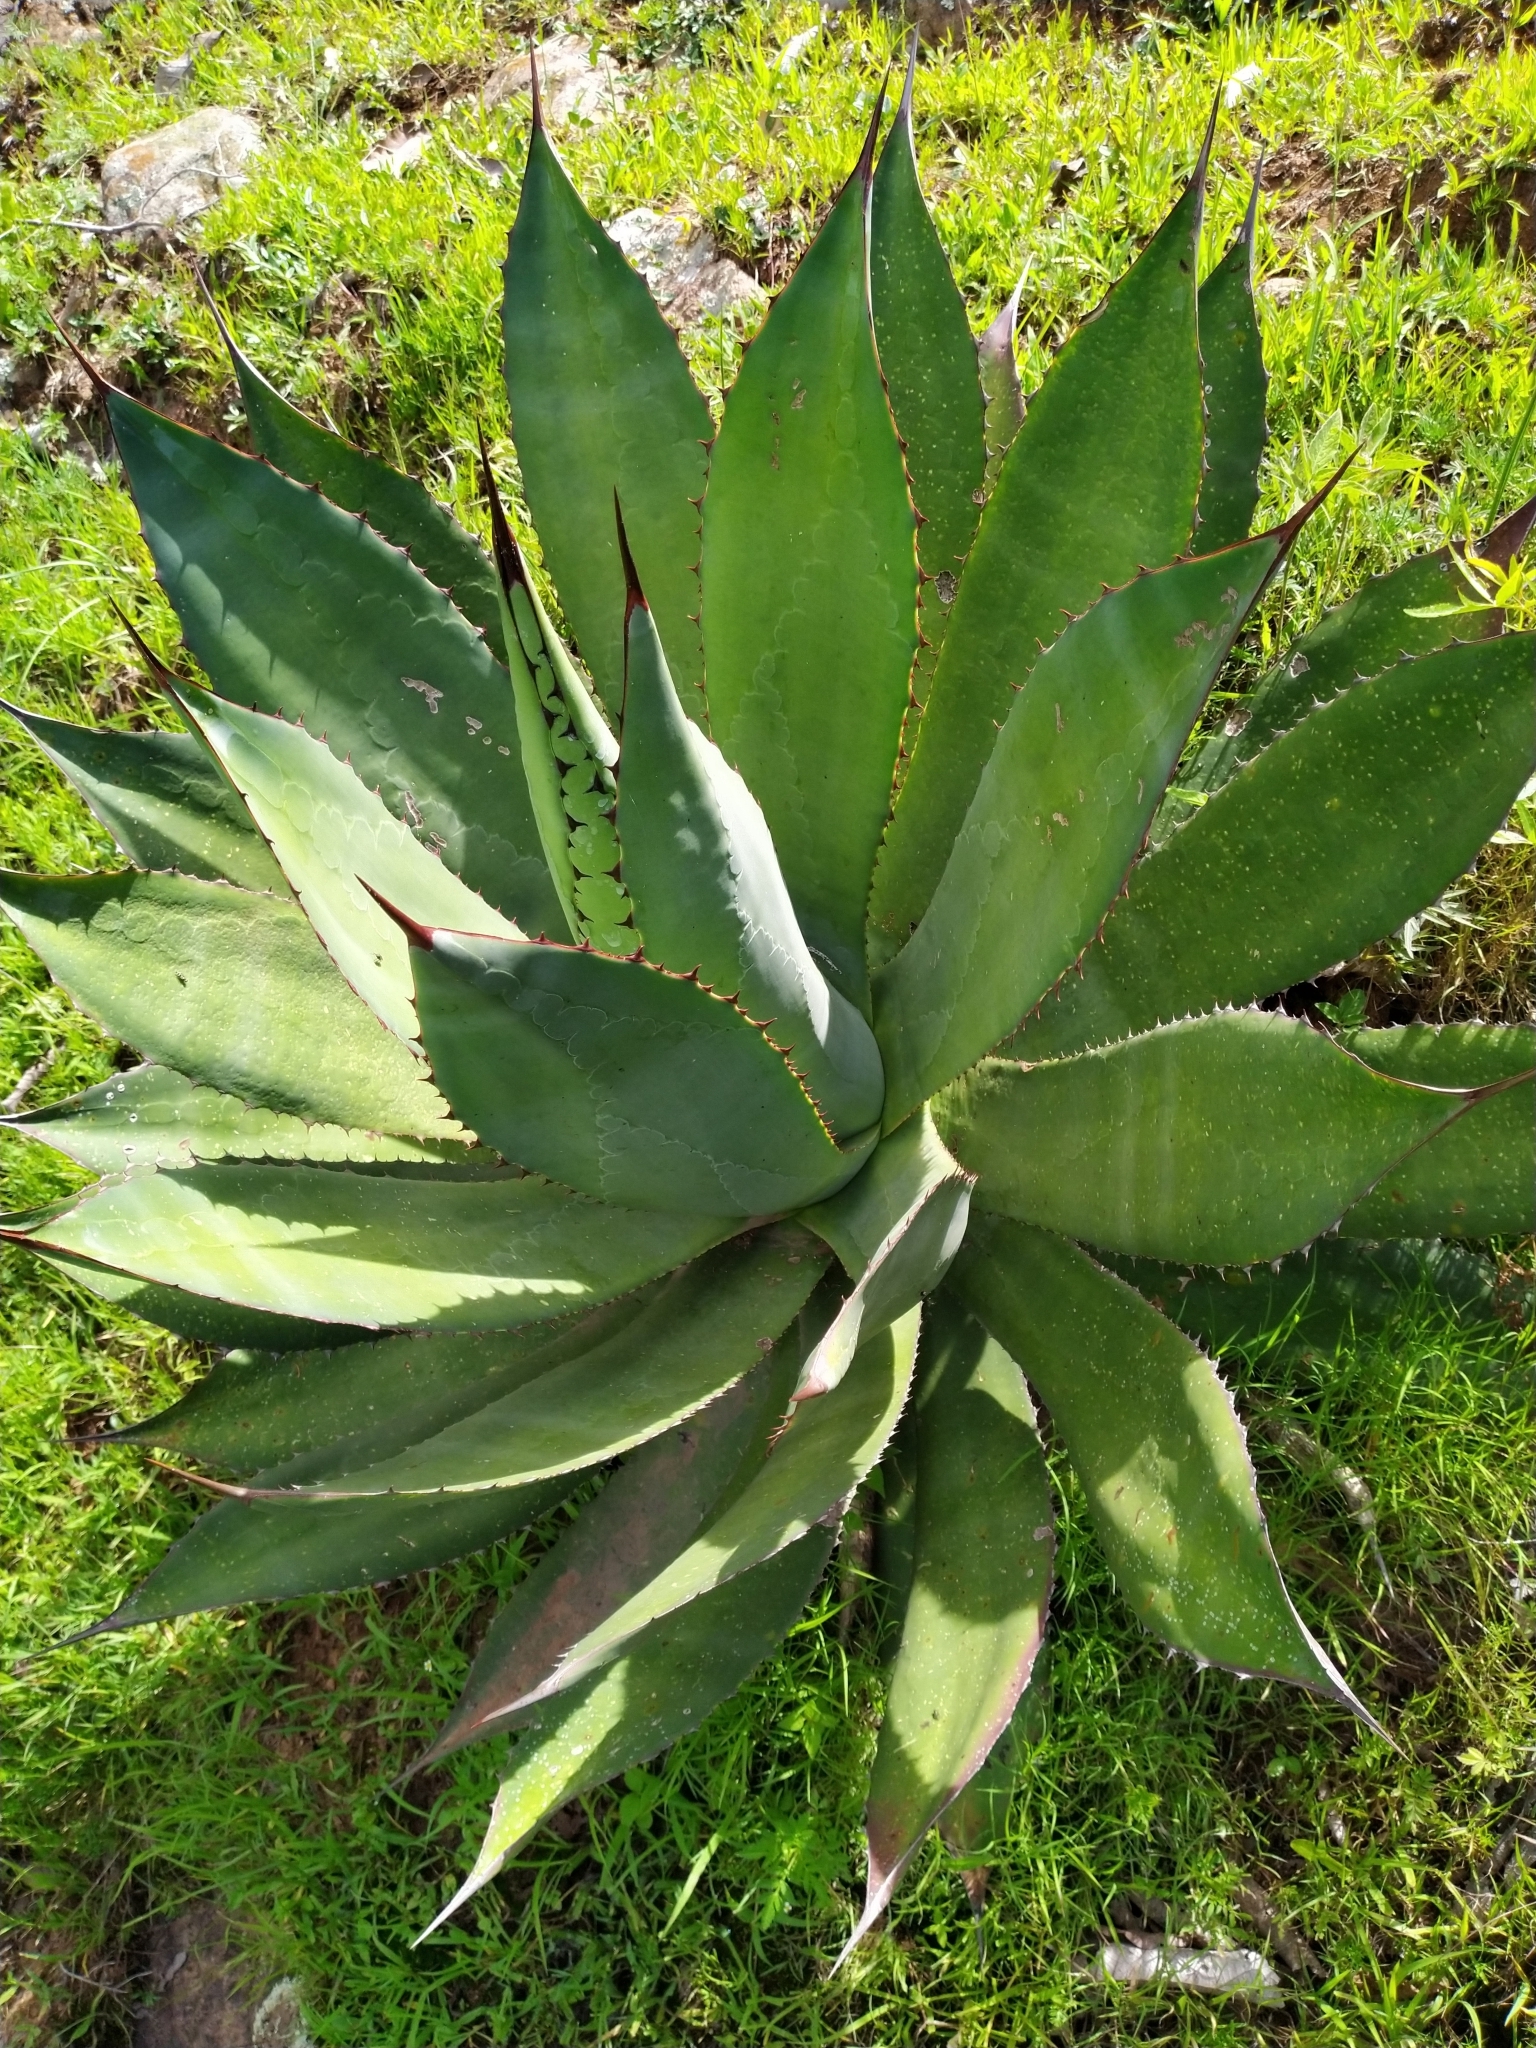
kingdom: Plantae
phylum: Tracheophyta
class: Liliopsida
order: Asparagales
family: Asparagaceae
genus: Agave
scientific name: Agave inaequidens
